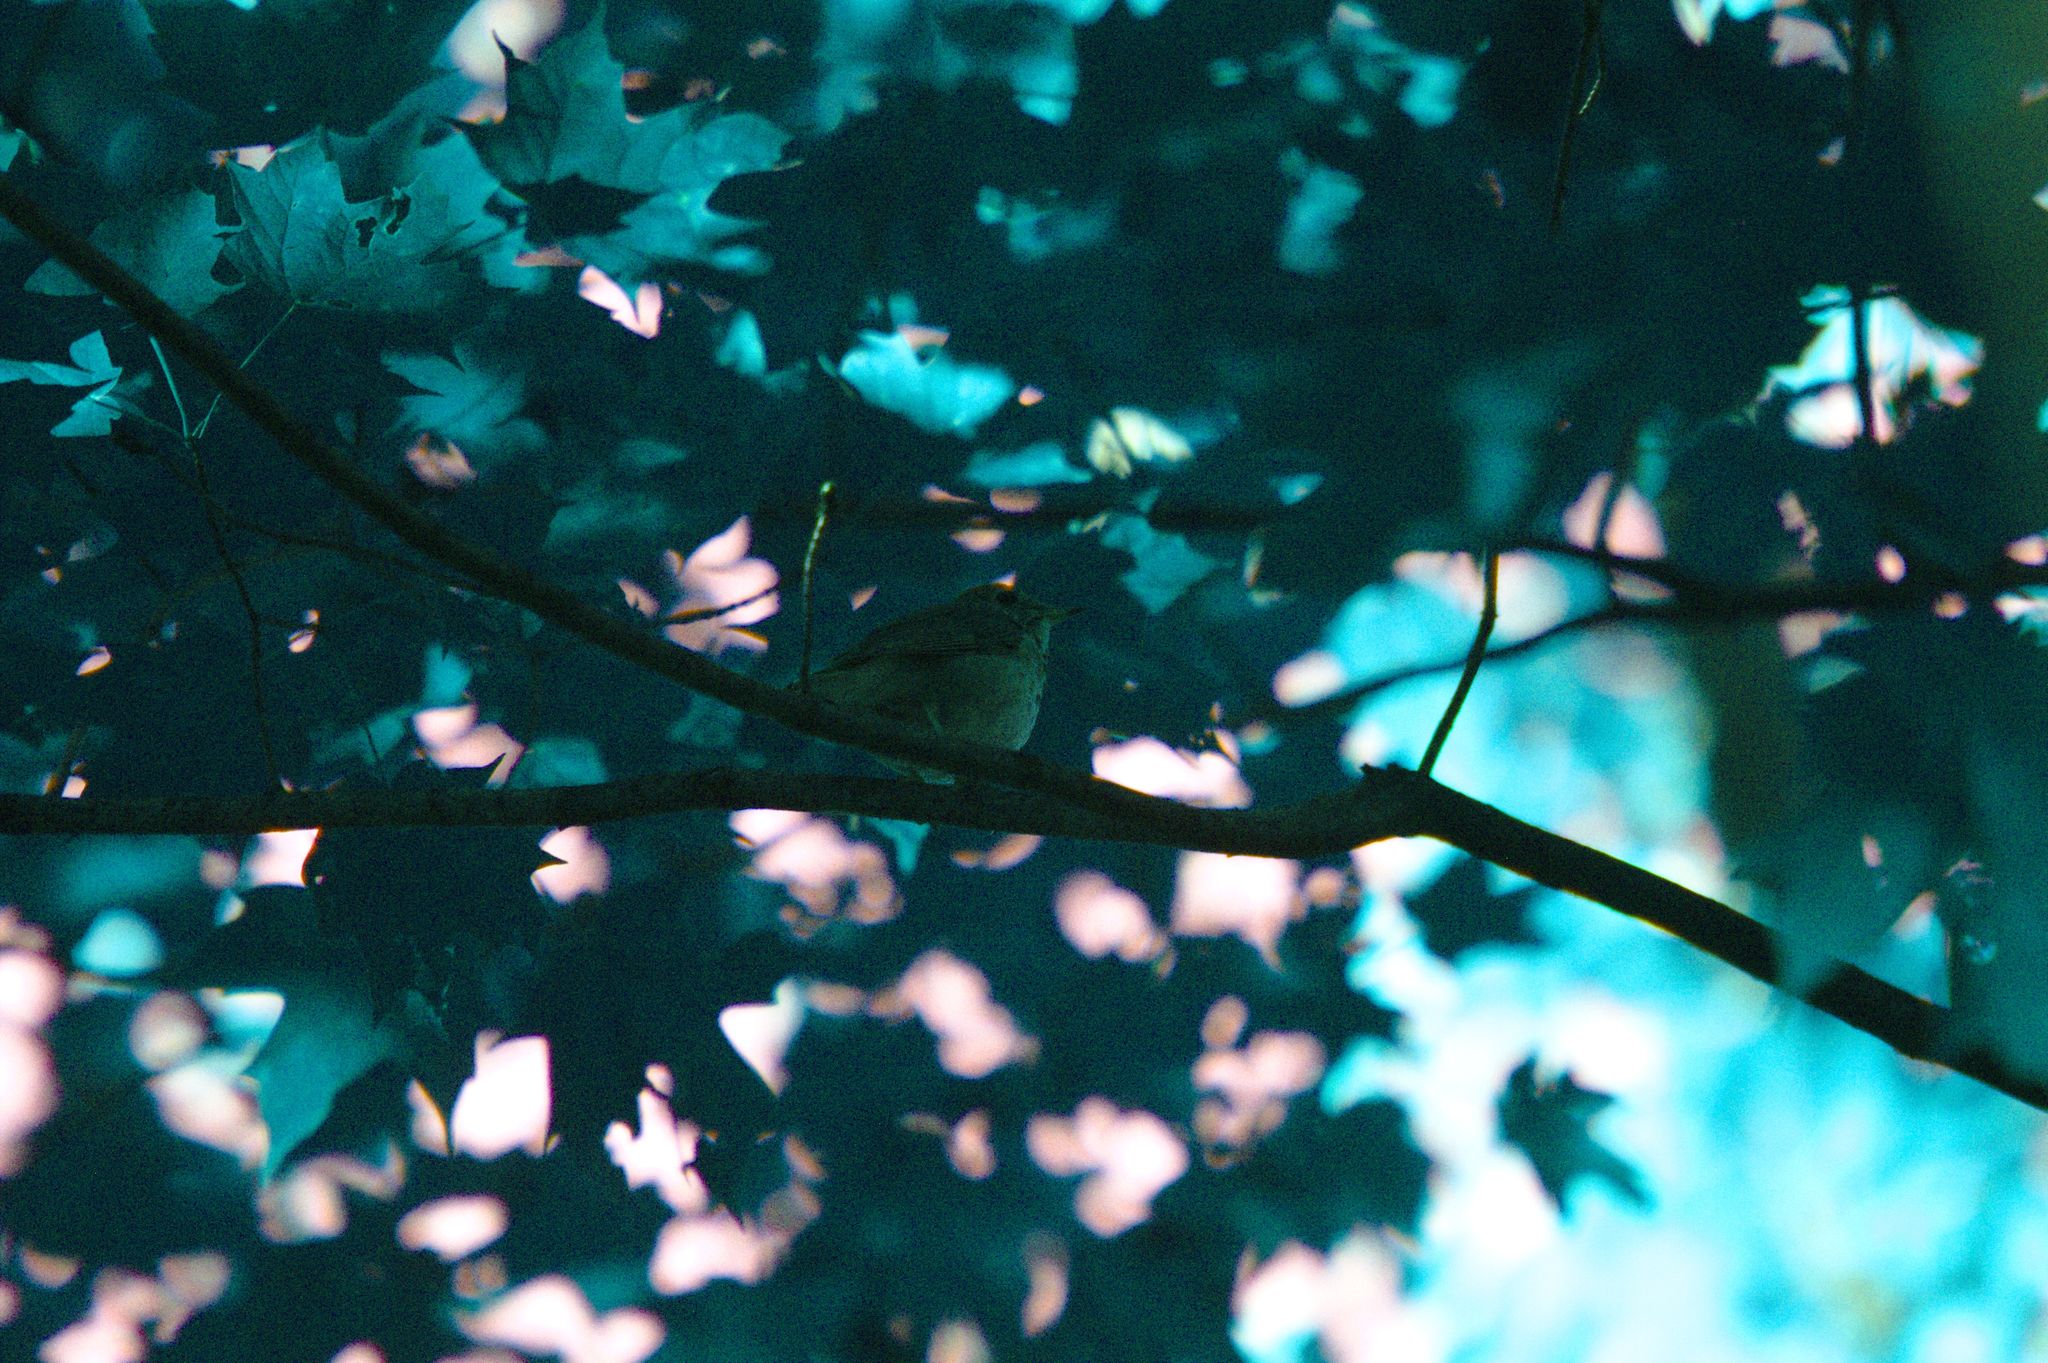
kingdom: Animalia
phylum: Chordata
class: Aves
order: Passeriformes
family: Turdidae
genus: Catharus
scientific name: Catharus guttatus
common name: Hermit thrush
